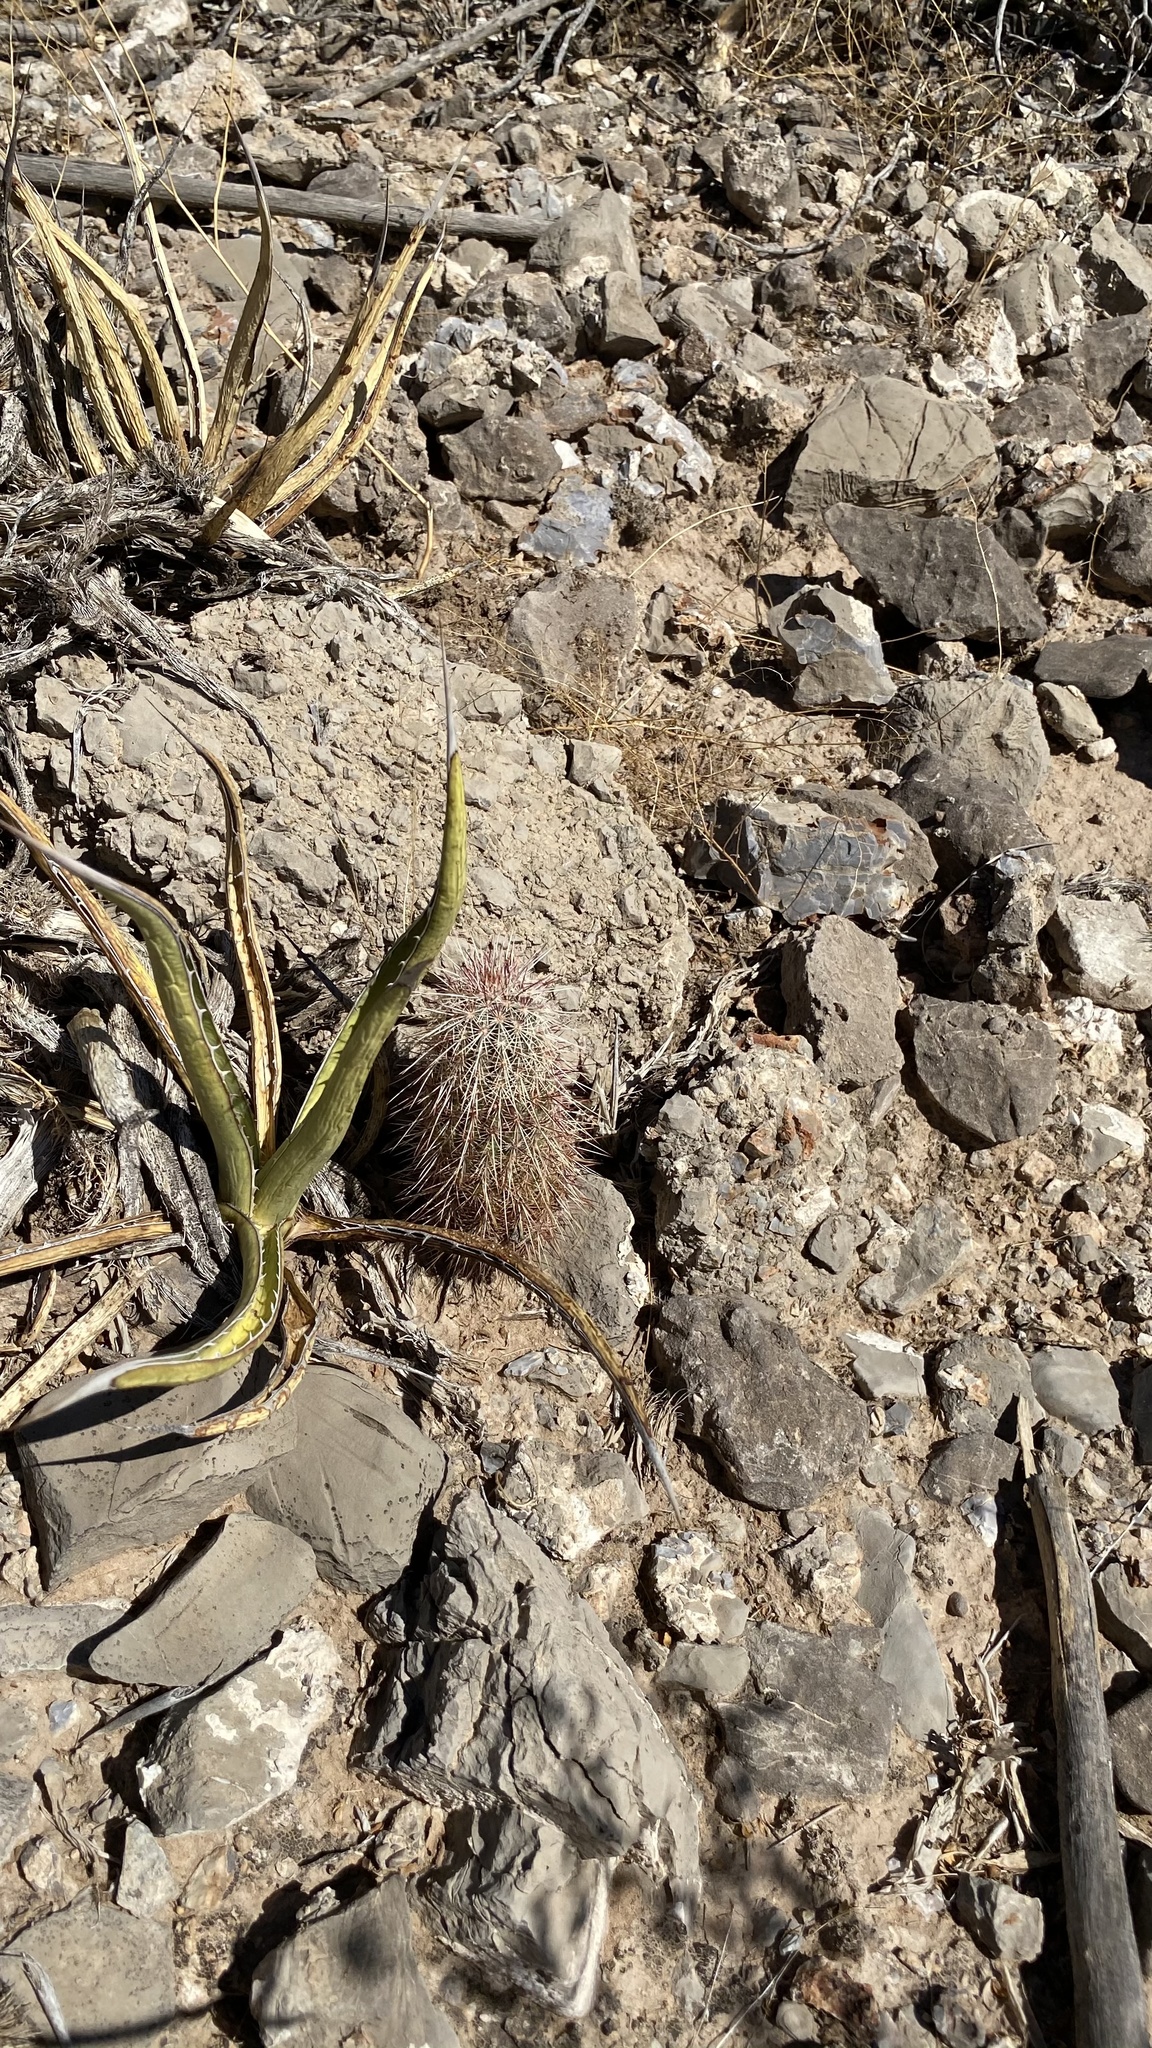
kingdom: Plantae
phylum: Tracheophyta
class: Magnoliopsida
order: Caryophyllales
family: Cactaceae
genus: Echinocereus
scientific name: Echinocereus viridiflorus
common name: Nylon hedgehog cactus
